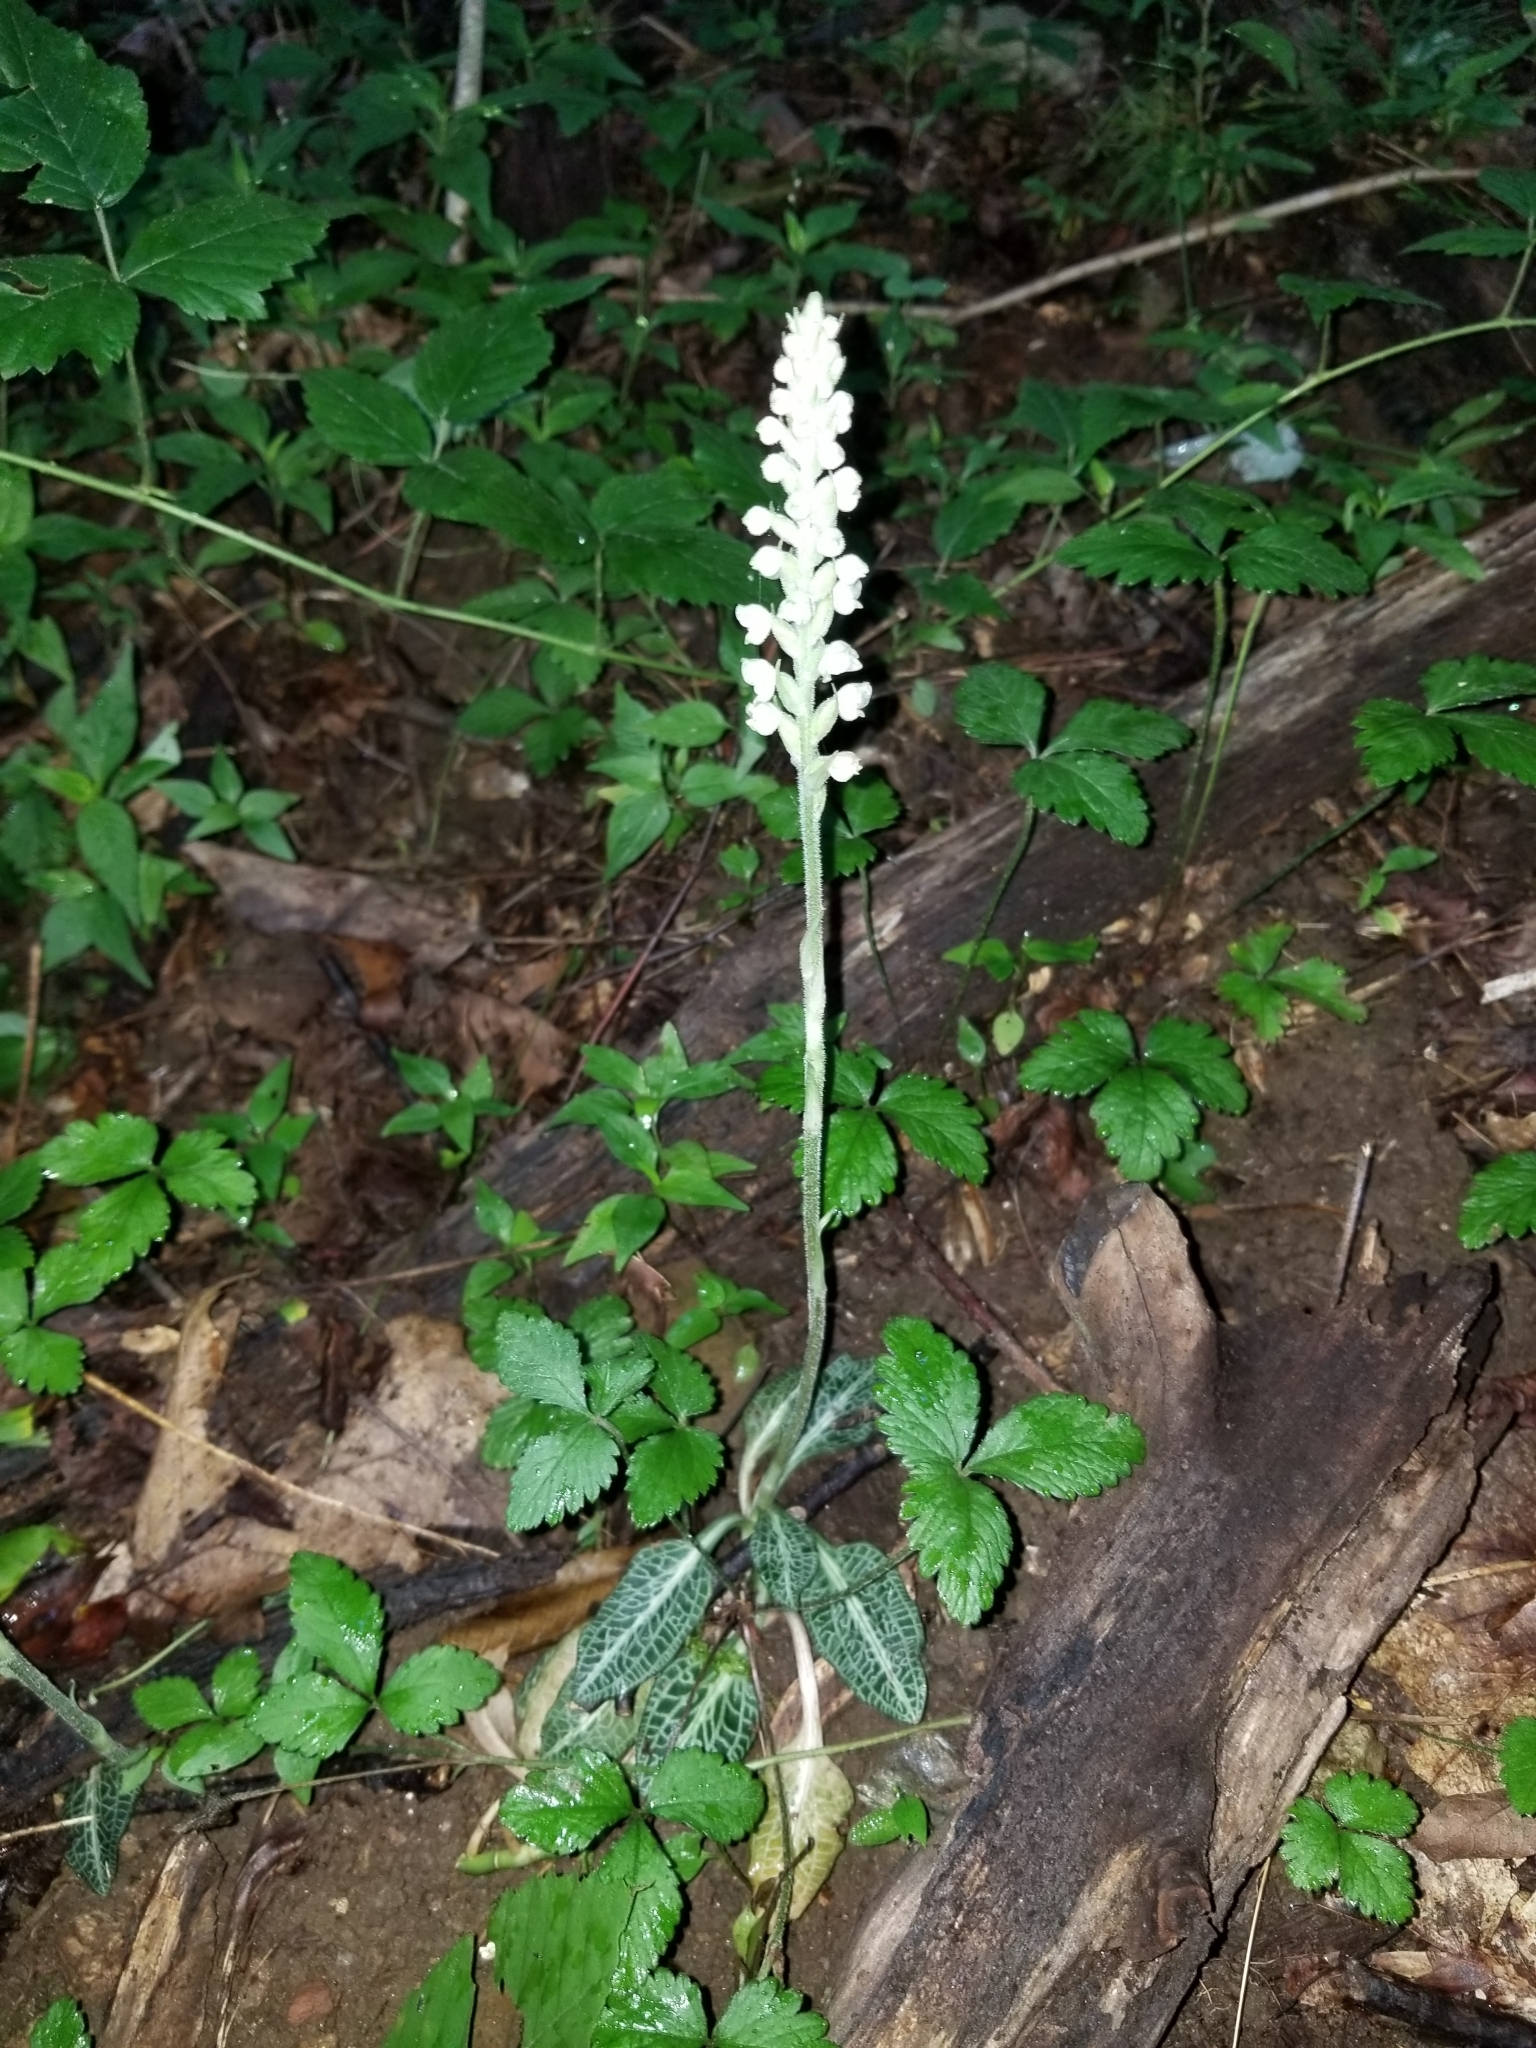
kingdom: Plantae
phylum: Tracheophyta
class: Liliopsida
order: Asparagales
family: Orchidaceae
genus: Goodyera
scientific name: Goodyera pubescens
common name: Downy rattlesnake-plantain
